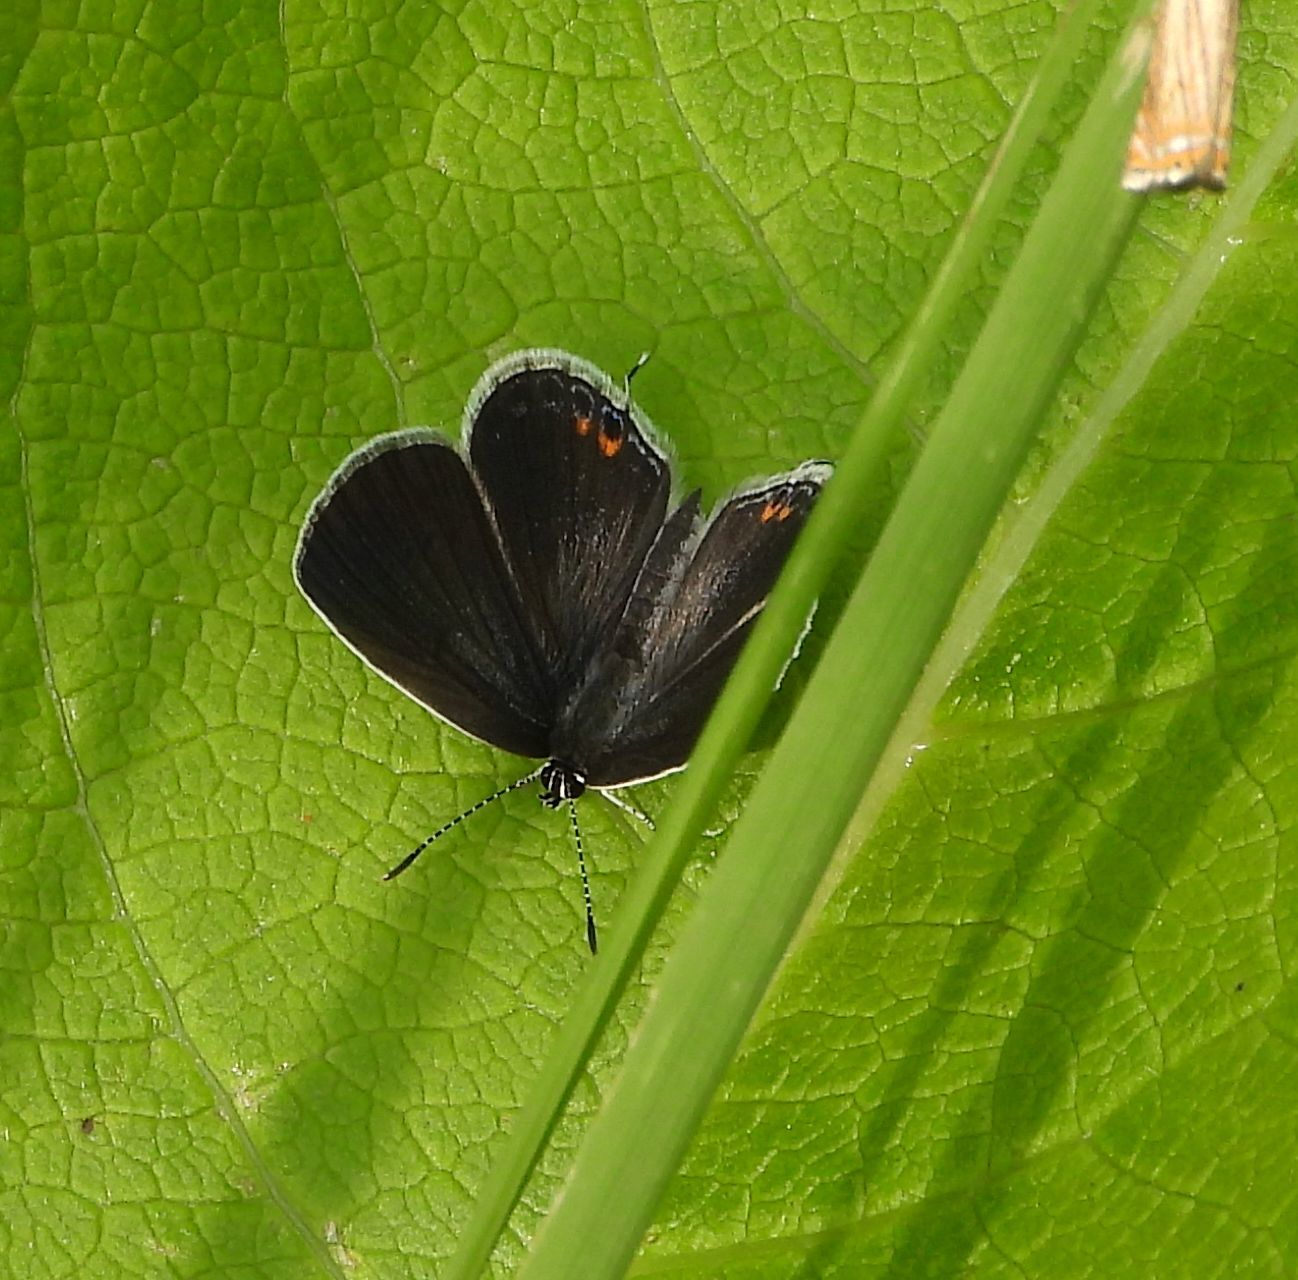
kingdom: Animalia
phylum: Arthropoda
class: Insecta
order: Lepidoptera
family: Lycaenidae
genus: Elkalyce
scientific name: Elkalyce comyntas
